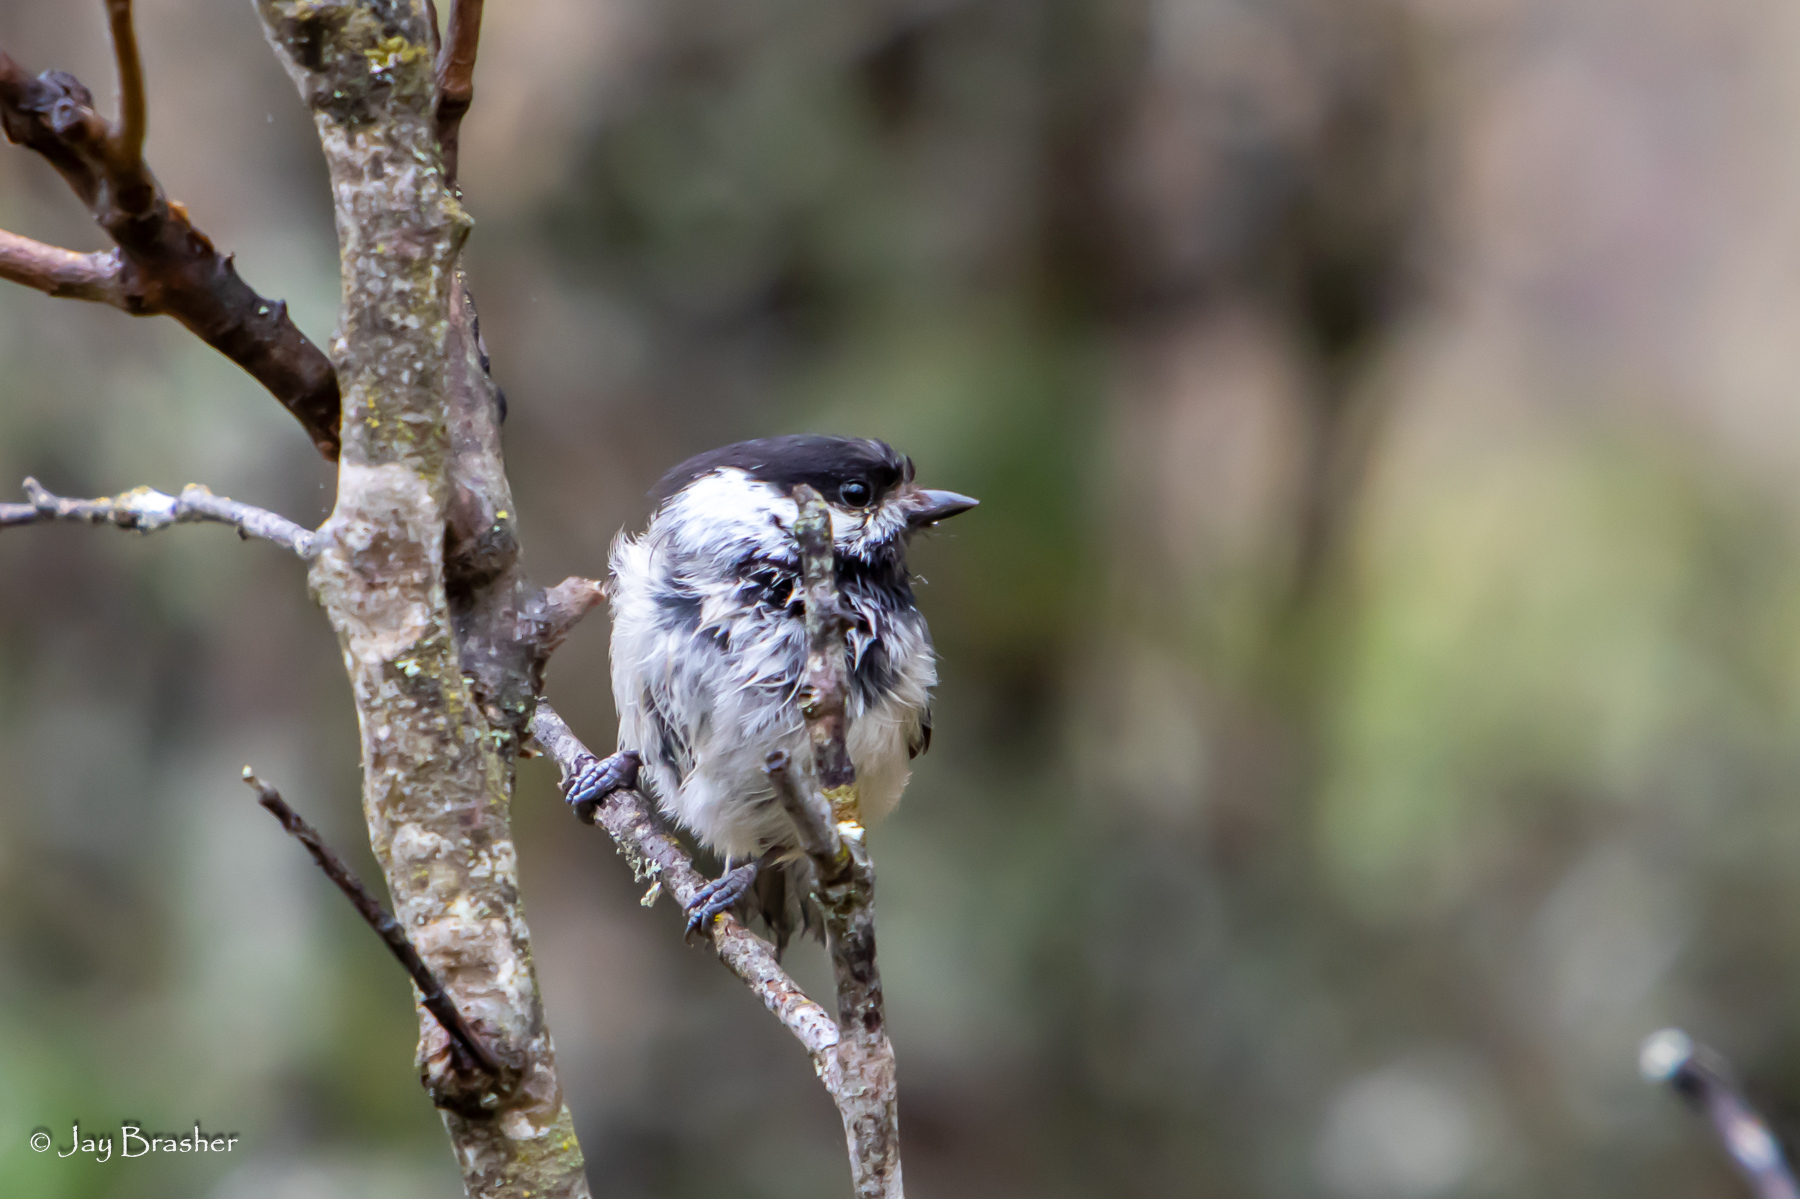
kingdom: Animalia
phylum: Chordata
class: Aves
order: Passeriformes
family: Paridae
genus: Poecile
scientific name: Poecile atricapillus
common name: Black-capped chickadee
